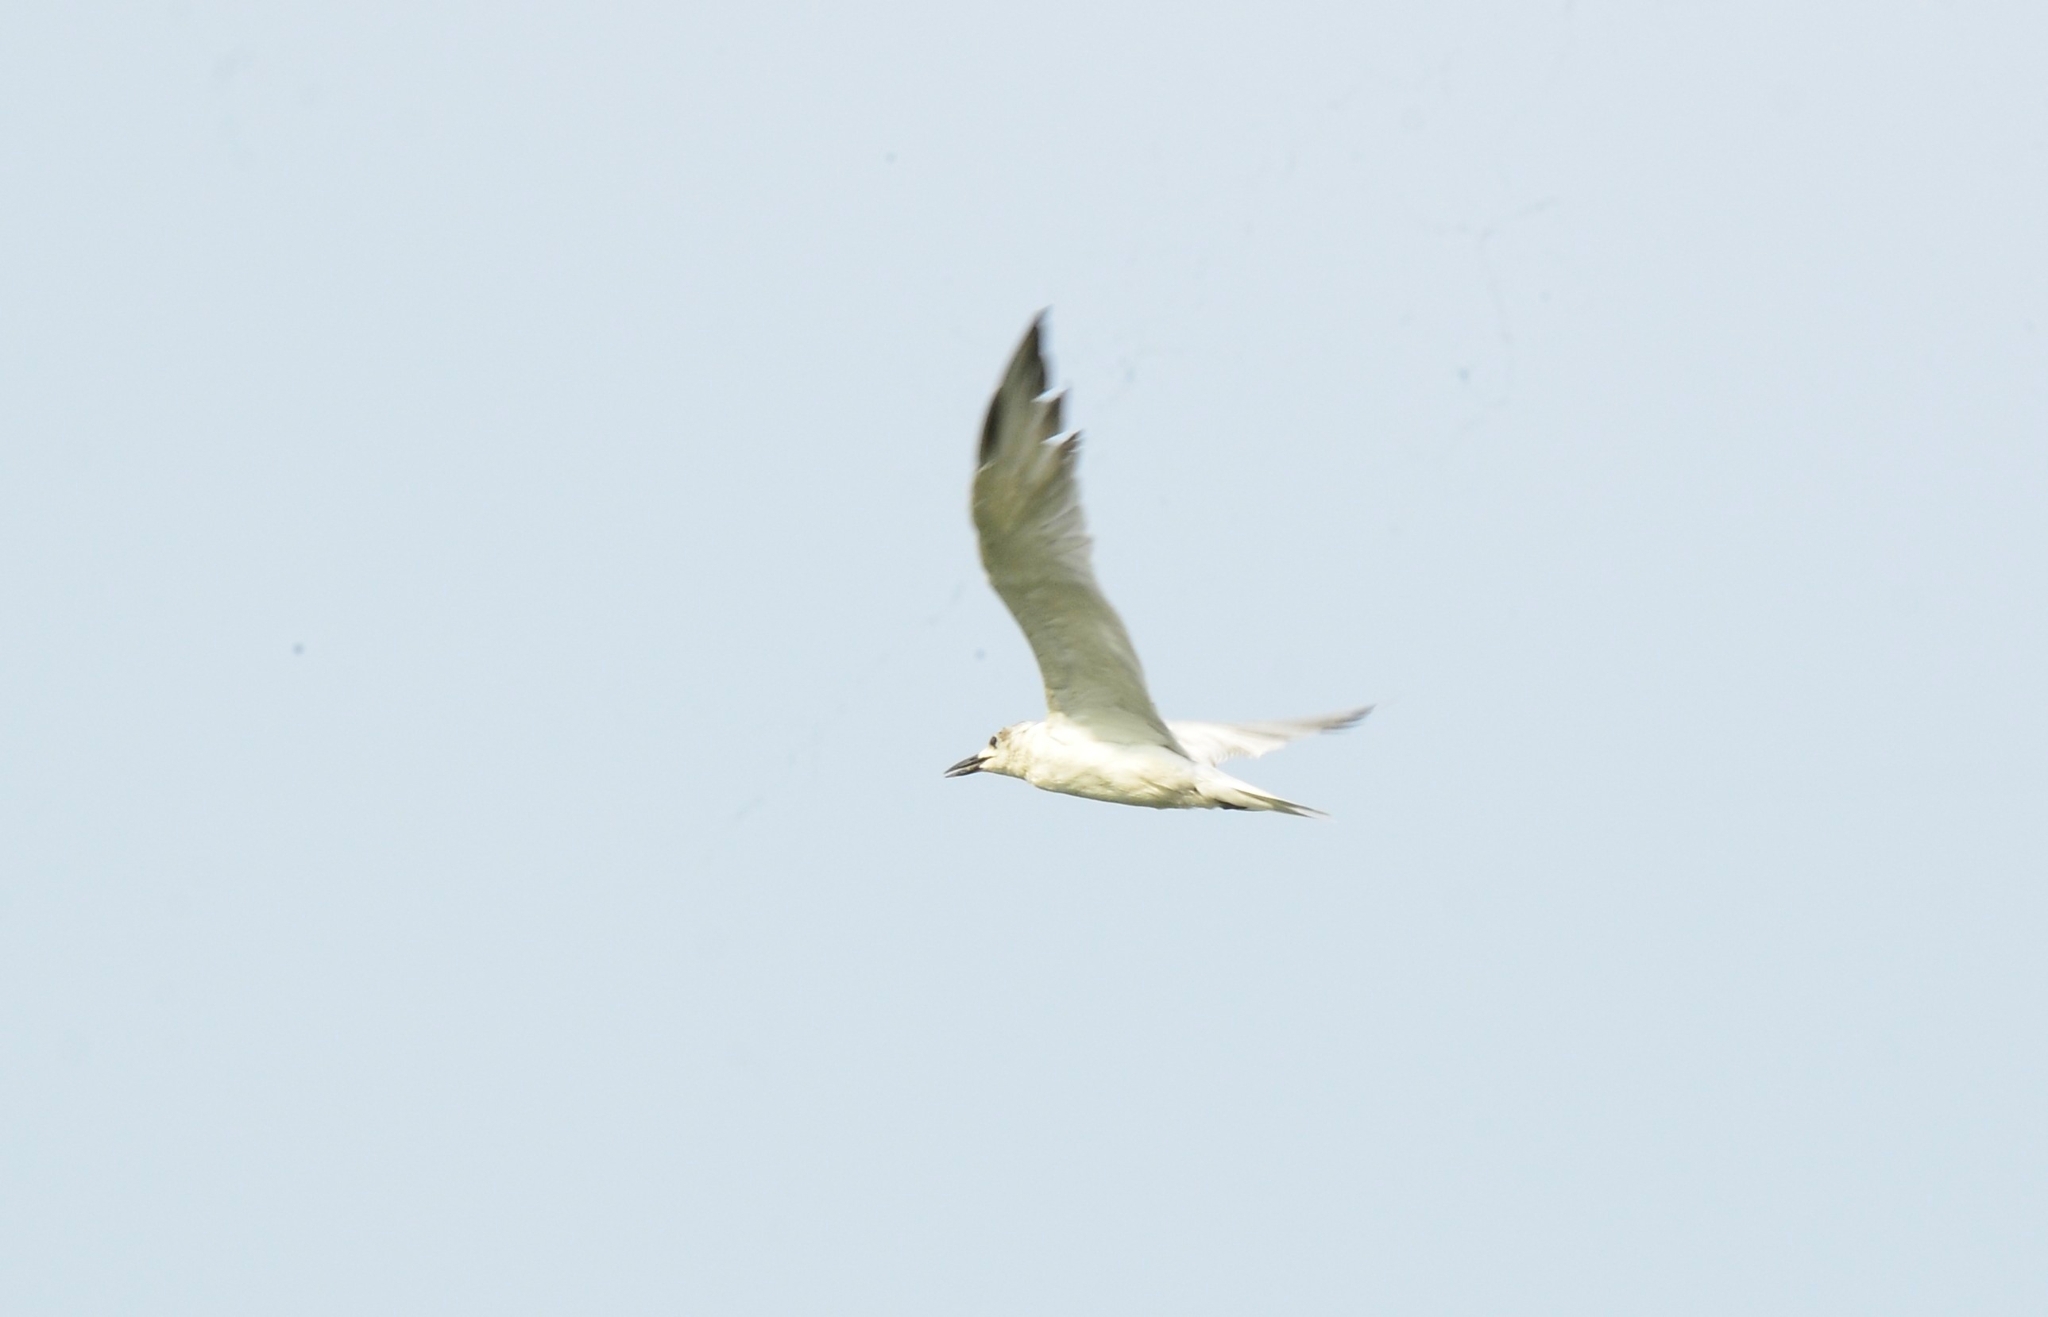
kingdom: Animalia
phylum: Chordata
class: Aves
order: Charadriiformes
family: Laridae
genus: Gelochelidon
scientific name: Gelochelidon nilotica
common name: Gull-billed tern
